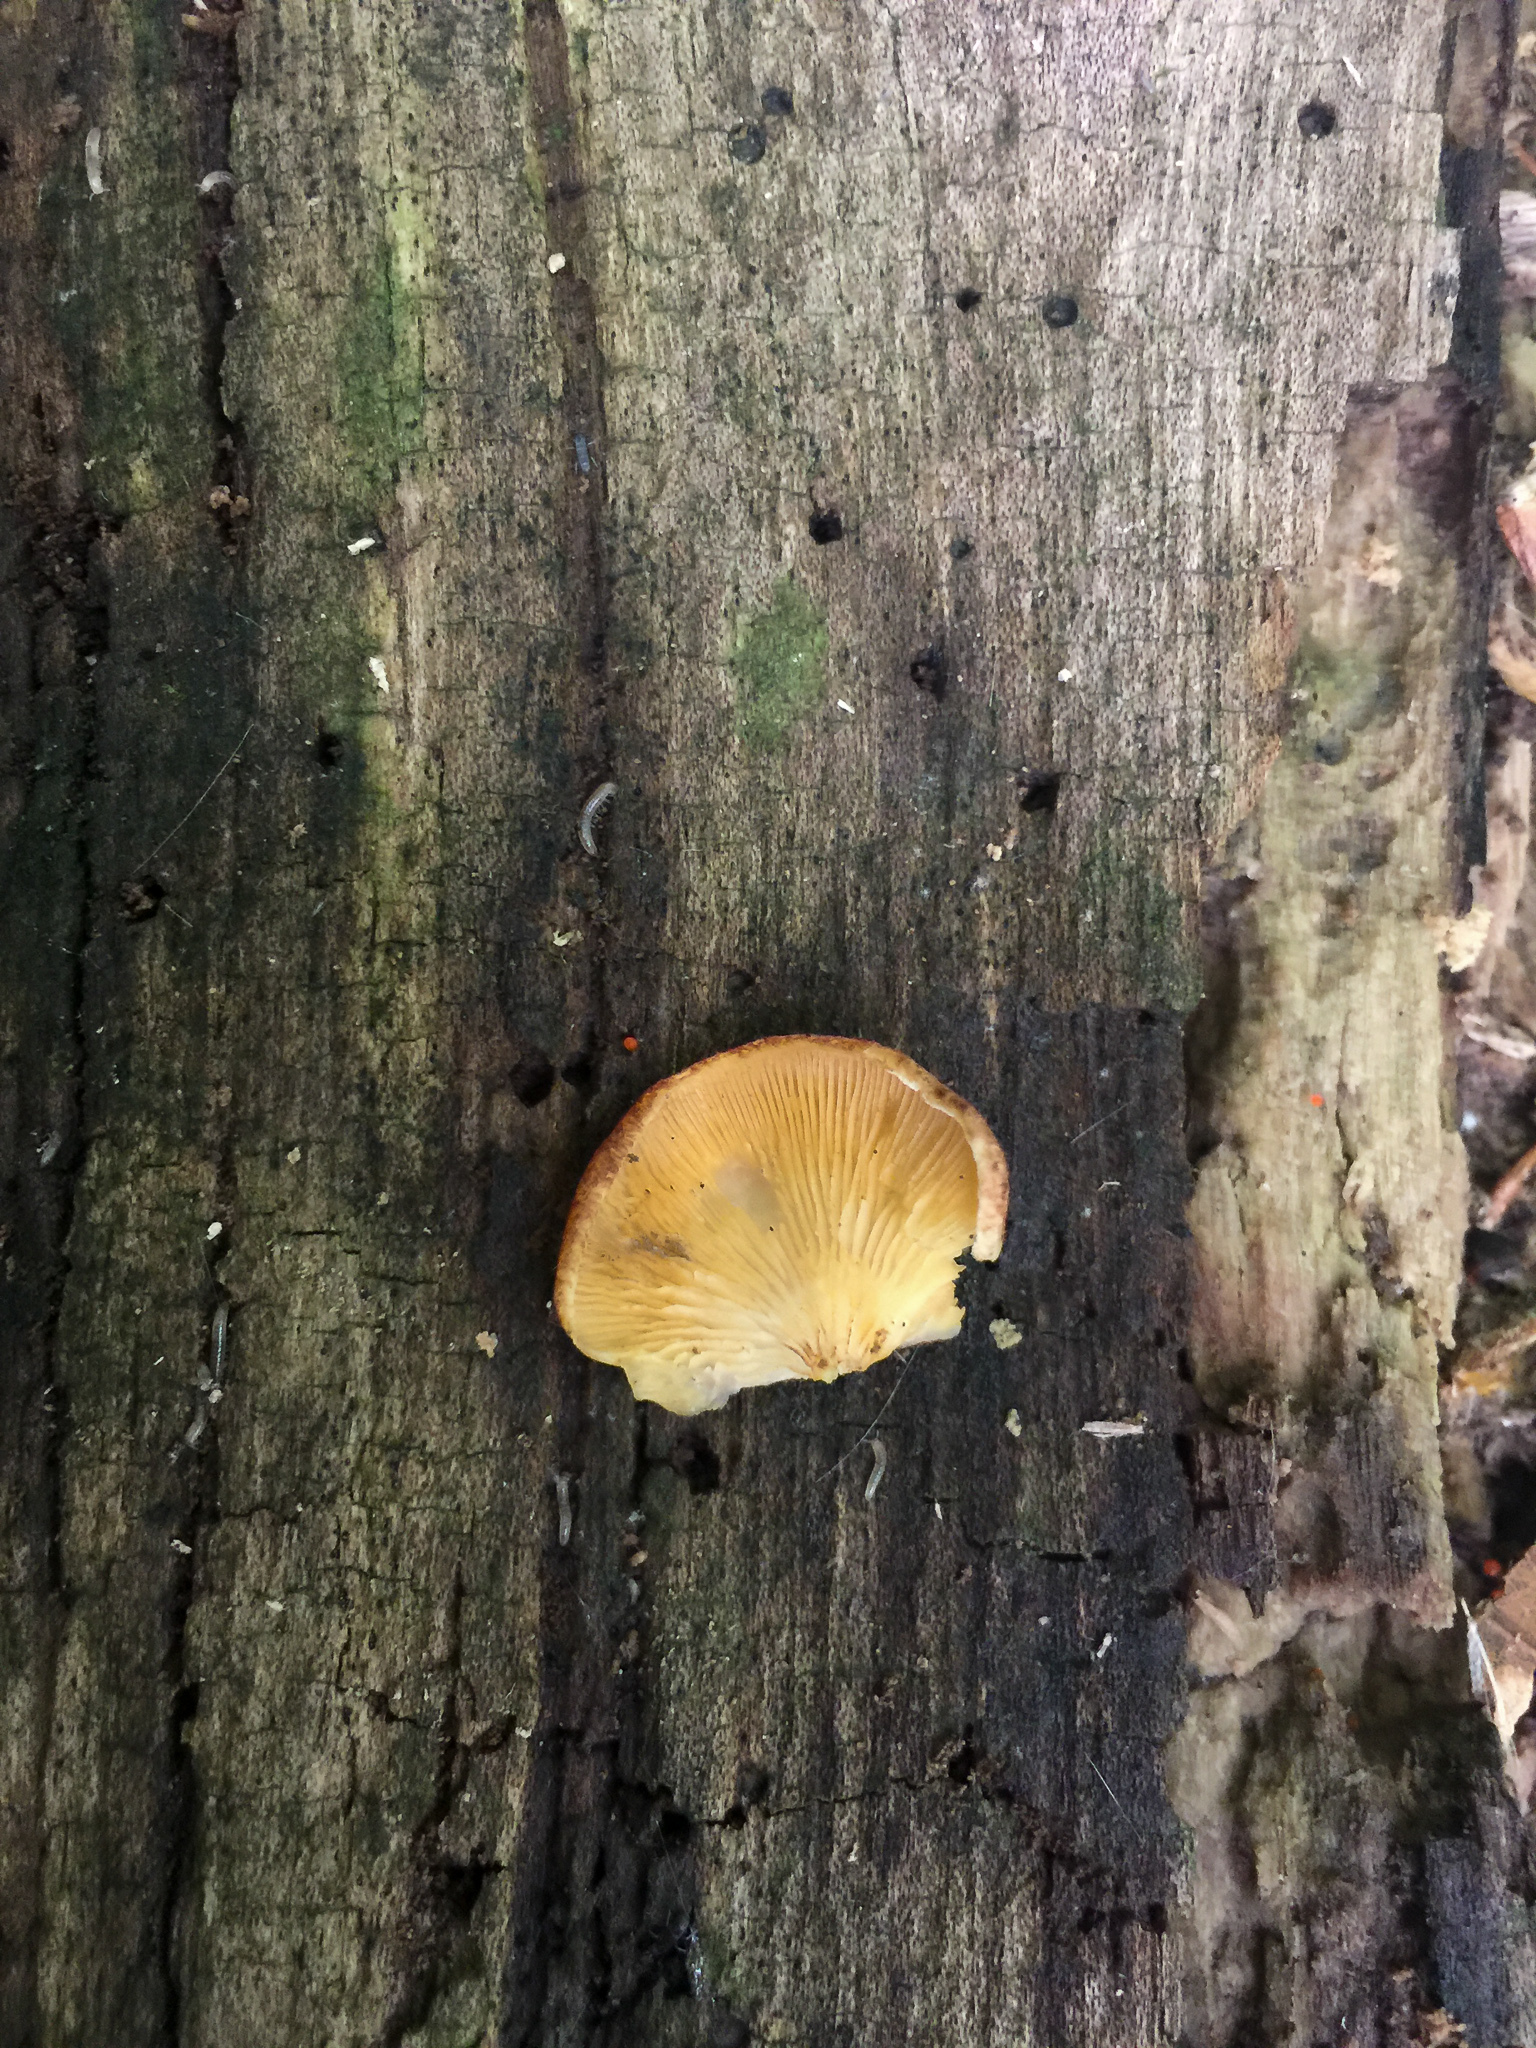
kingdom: Fungi
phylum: Basidiomycota
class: Agaricomycetes
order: Agaricales
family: Crepidotaceae
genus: Crepidotus
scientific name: Crepidotus crocophyllus
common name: Saffron oysterling
